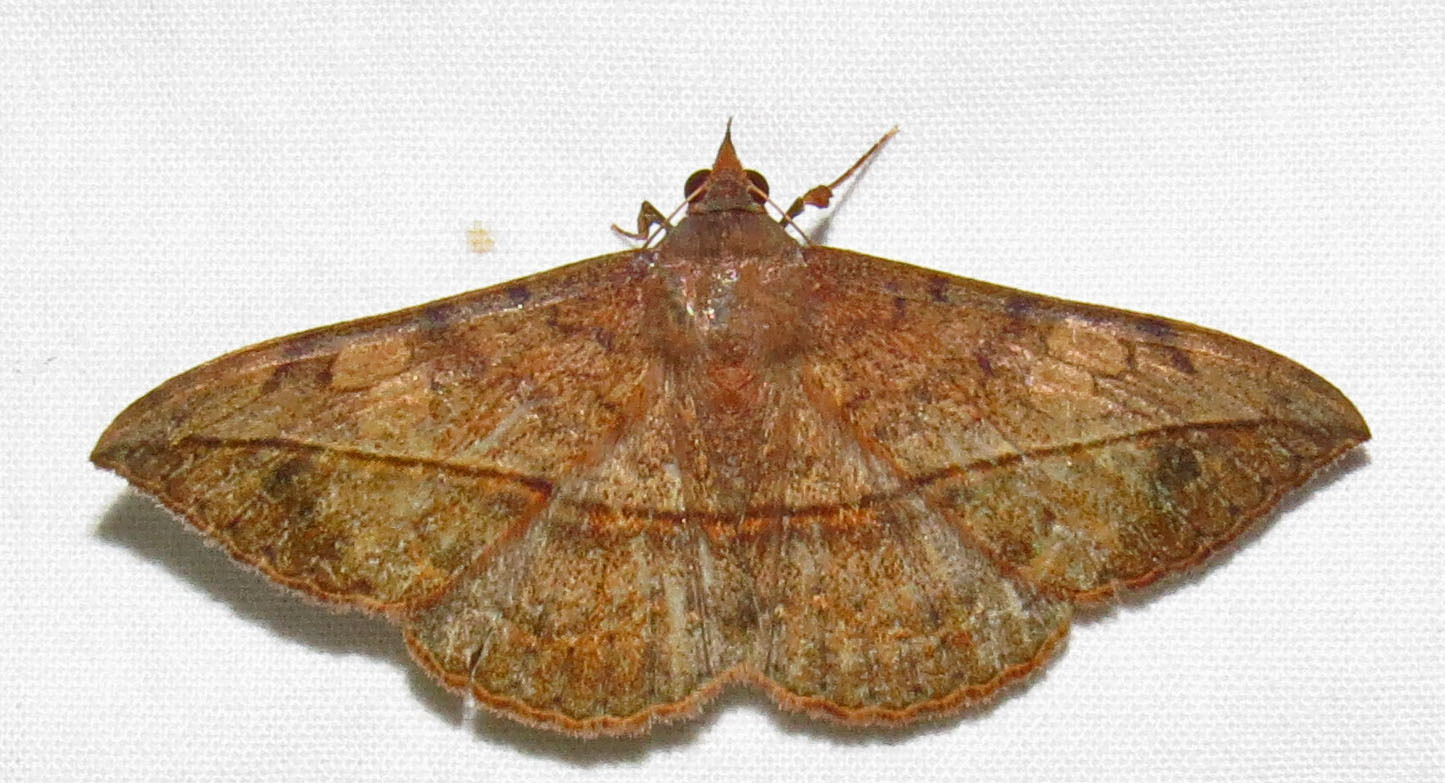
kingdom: Animalia
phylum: Arthropoda
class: Insecta
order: Lepidoptera
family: Erebidae
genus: Anticarsia
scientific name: Anticarsia gemmatalis
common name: Cutworm moth
